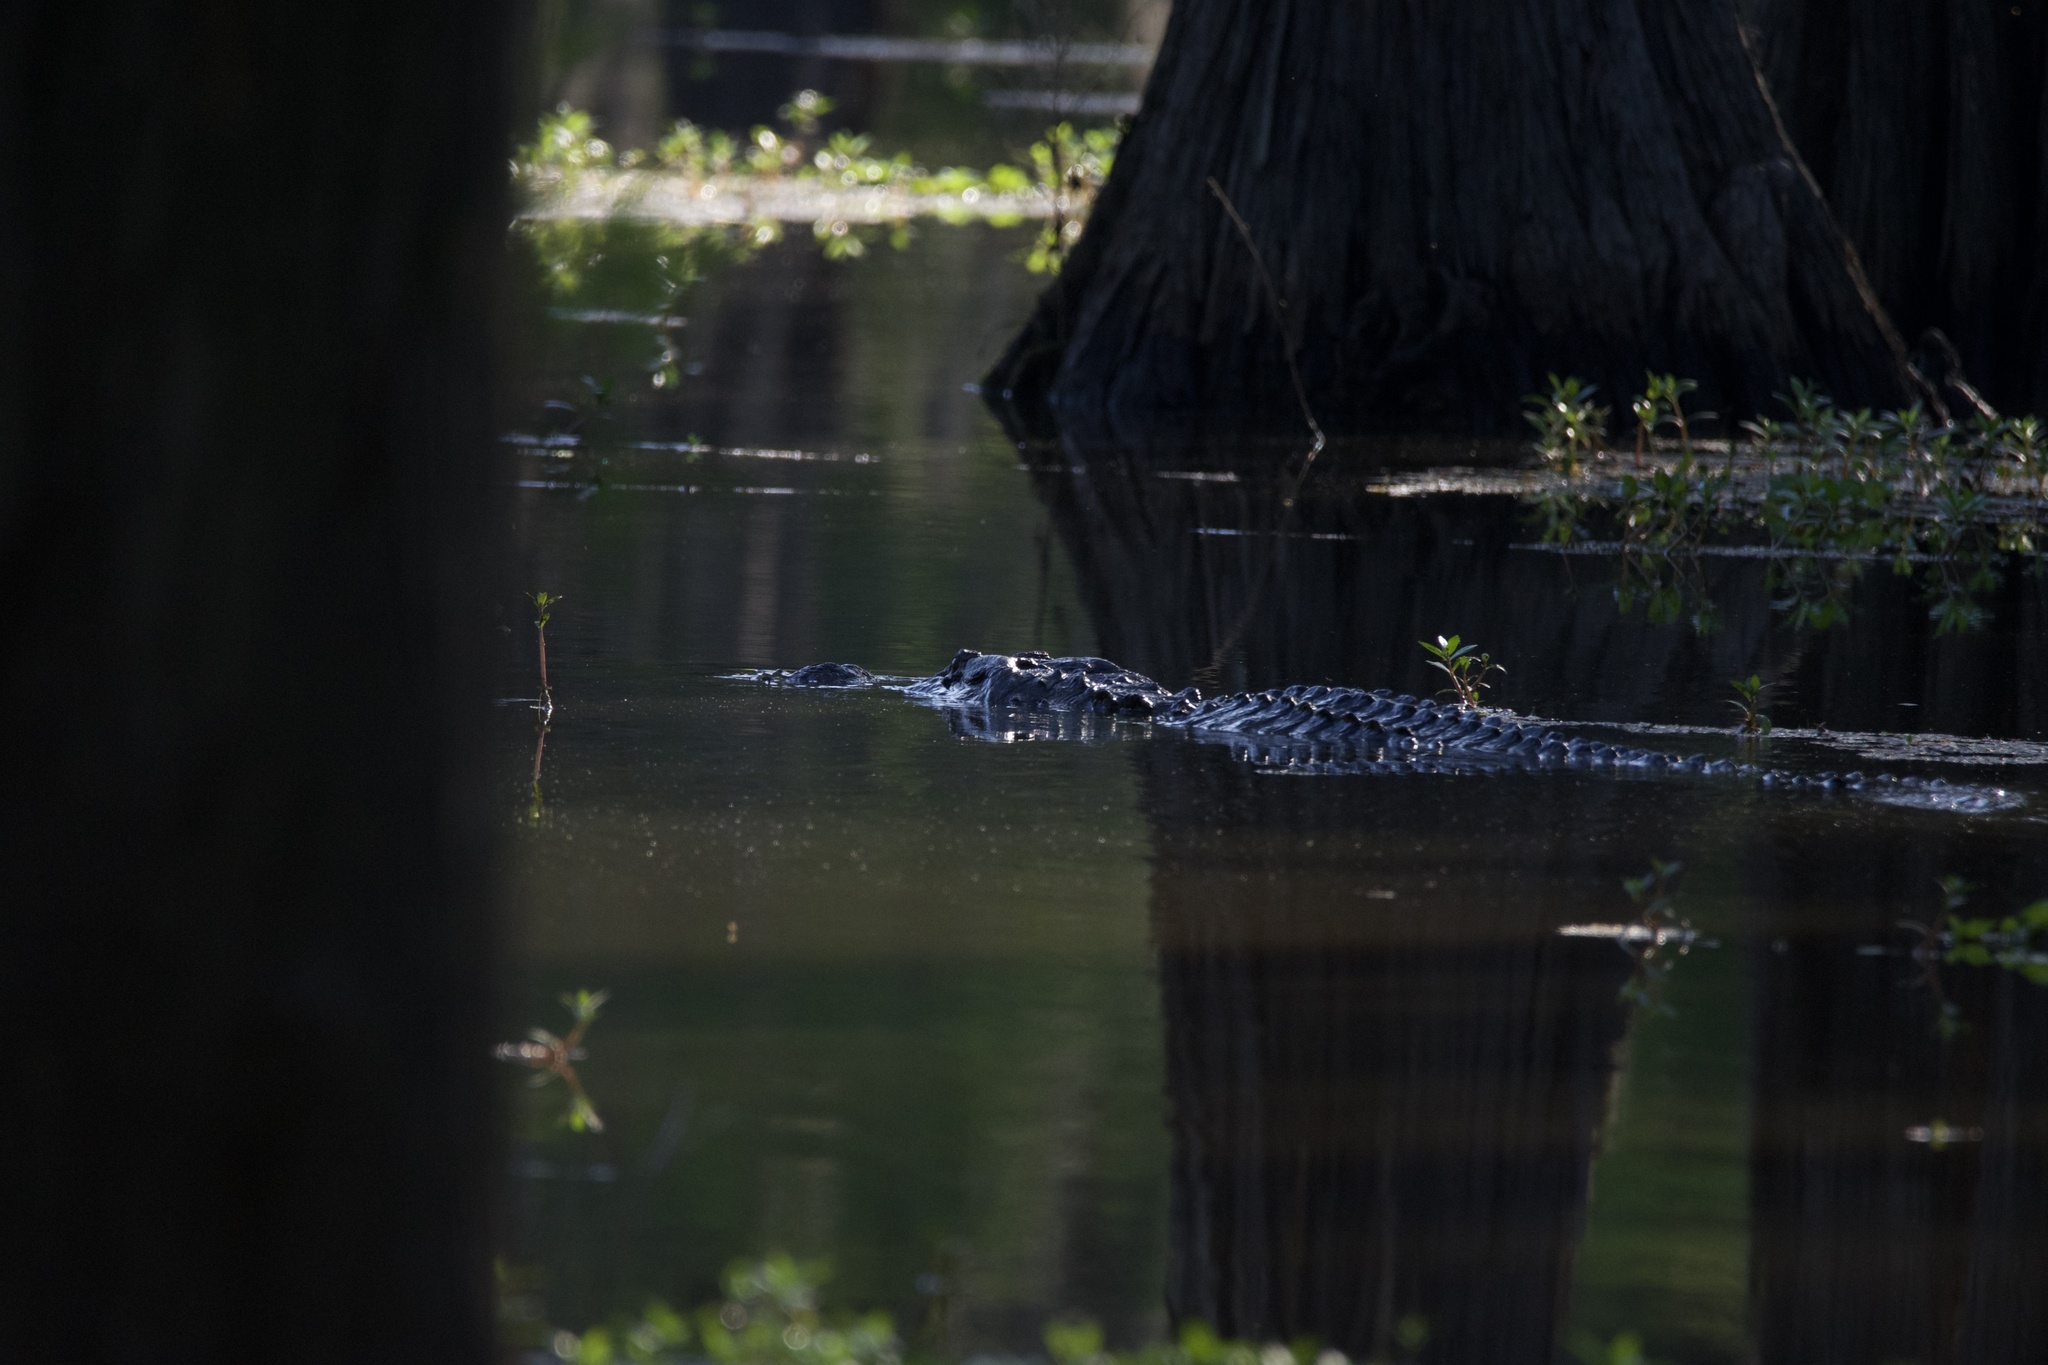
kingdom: Animalia
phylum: Chordata
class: Crocodylia
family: Alligatoridae
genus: Alligator
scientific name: Alligator mississippiensis
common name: American alligator
